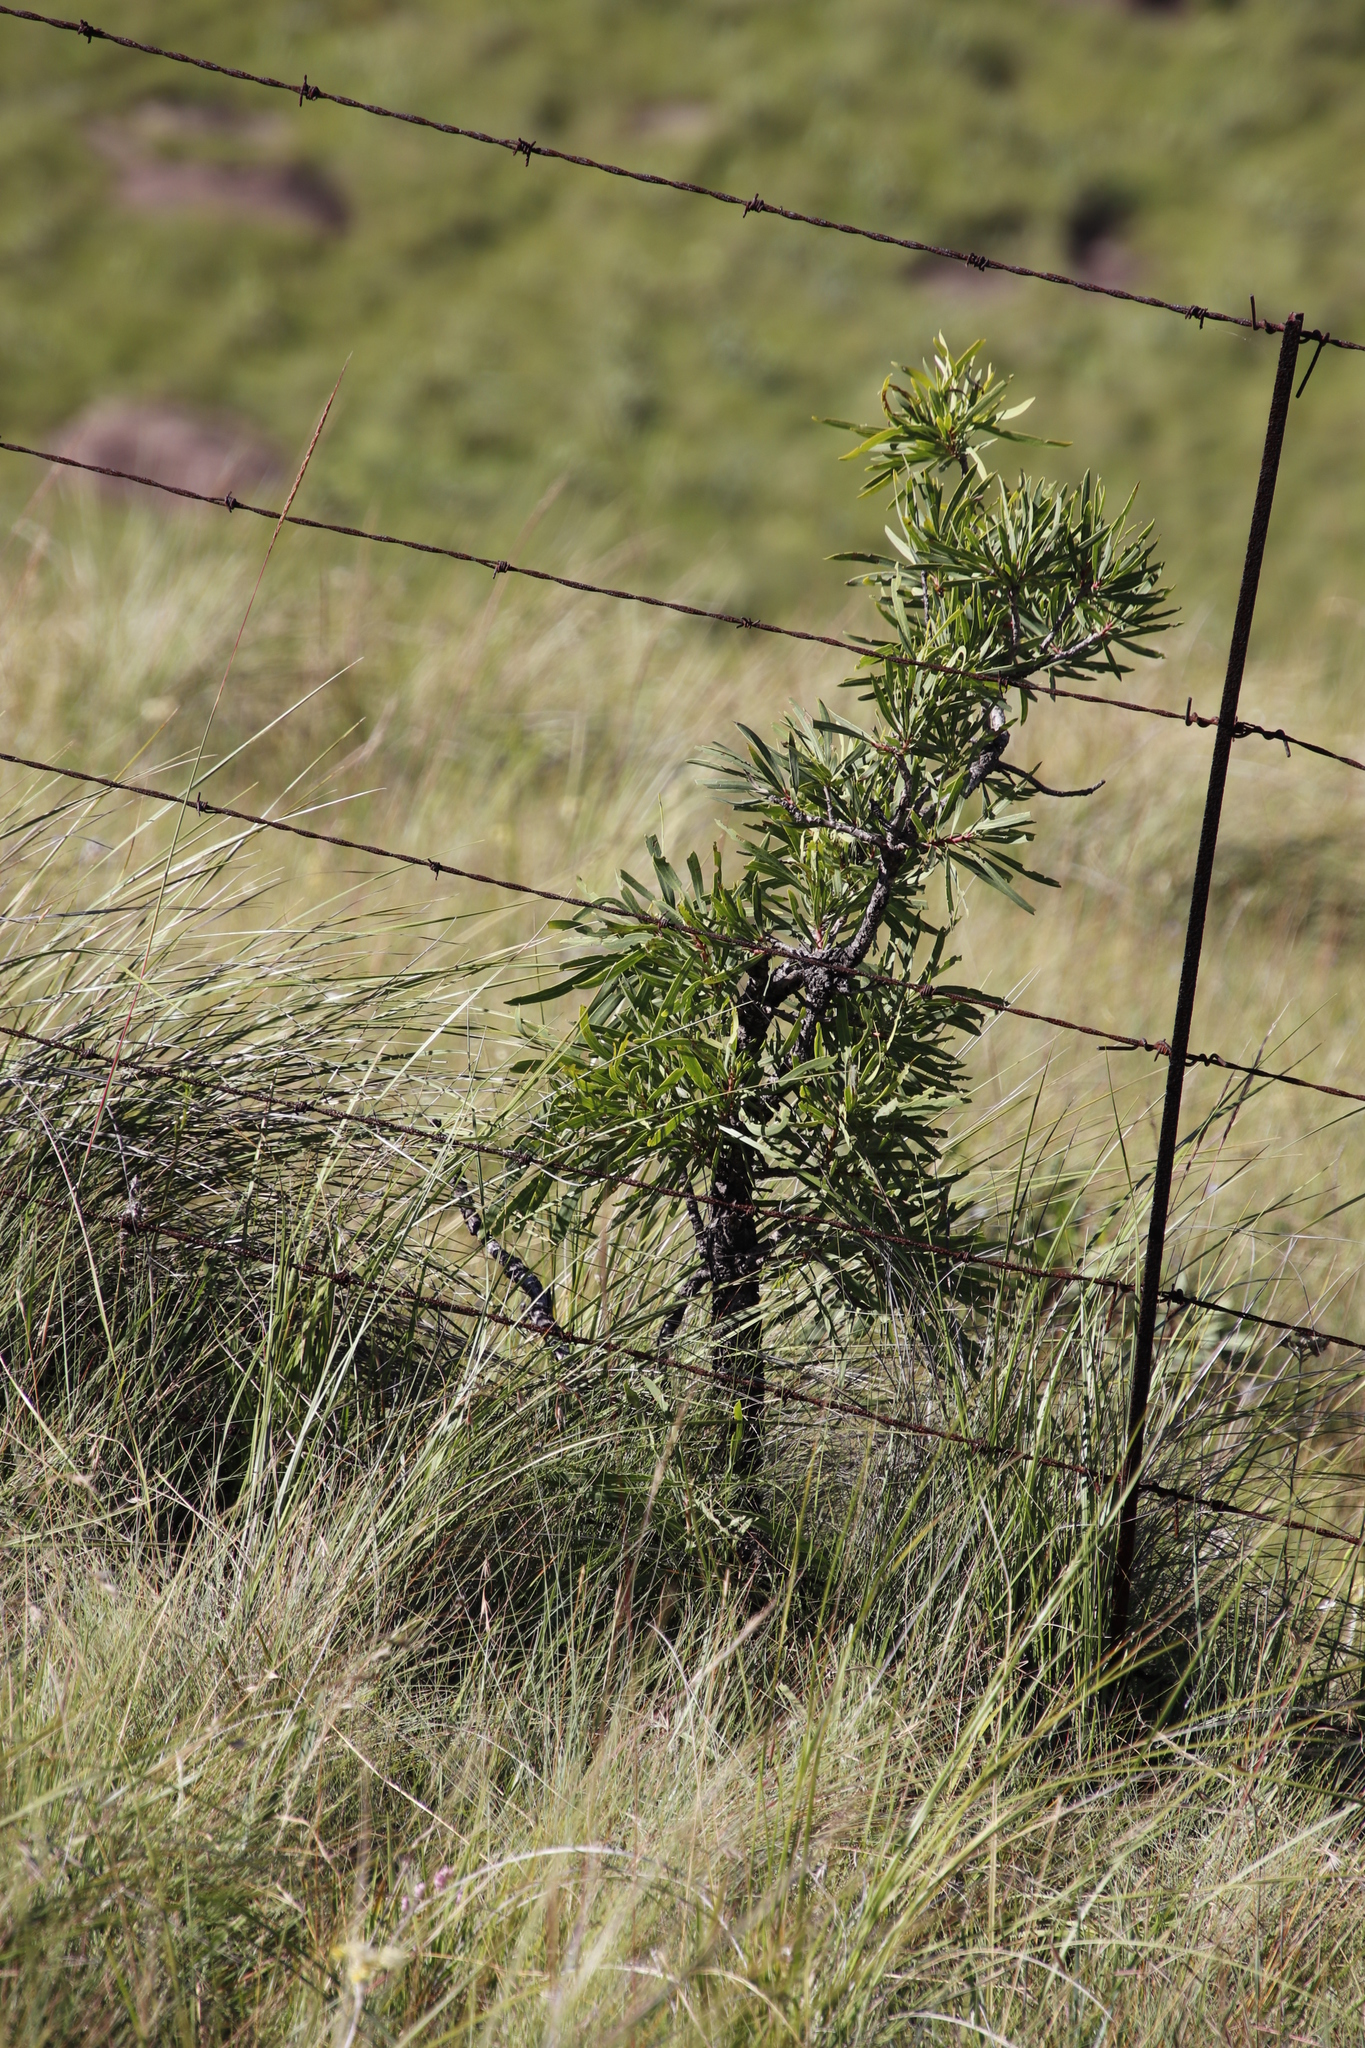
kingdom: Plantae
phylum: Tracheophyta
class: Magnoliopsida
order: Proteales
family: Proteaceae
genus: Protea
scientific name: Protea caffra
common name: Common sugarbush
